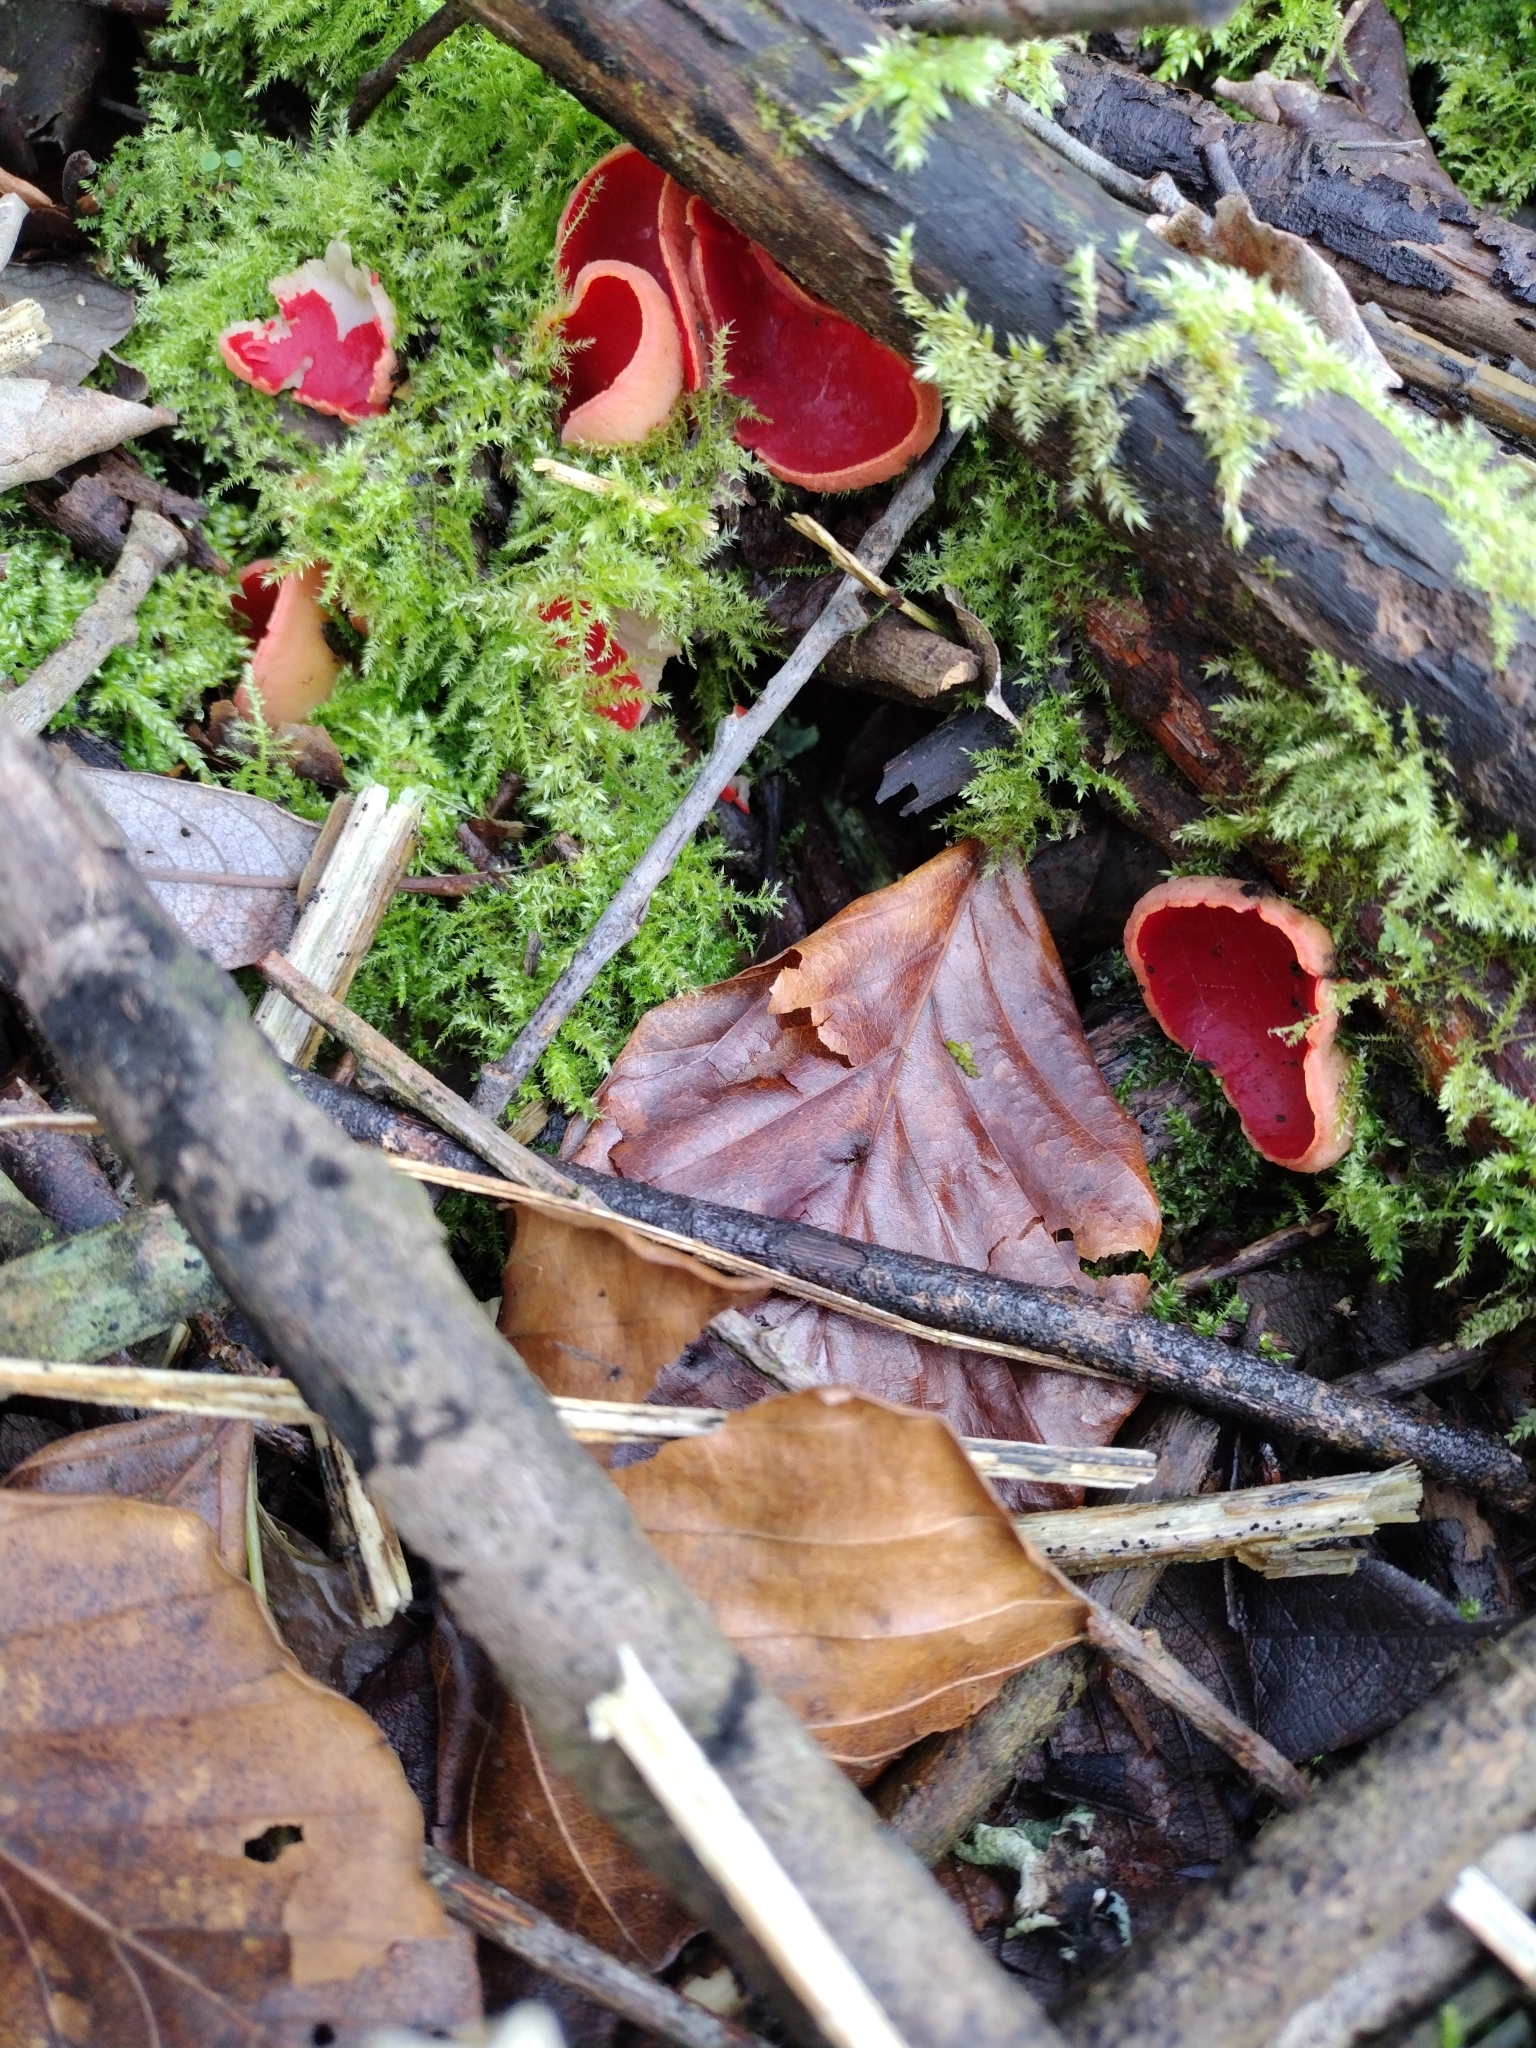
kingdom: Fungi
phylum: Ascomycota
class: Pezizomycetes
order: Pezizales
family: Sarcoscyphaceae
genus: Sarcoscypha
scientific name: Sarcoscypha
